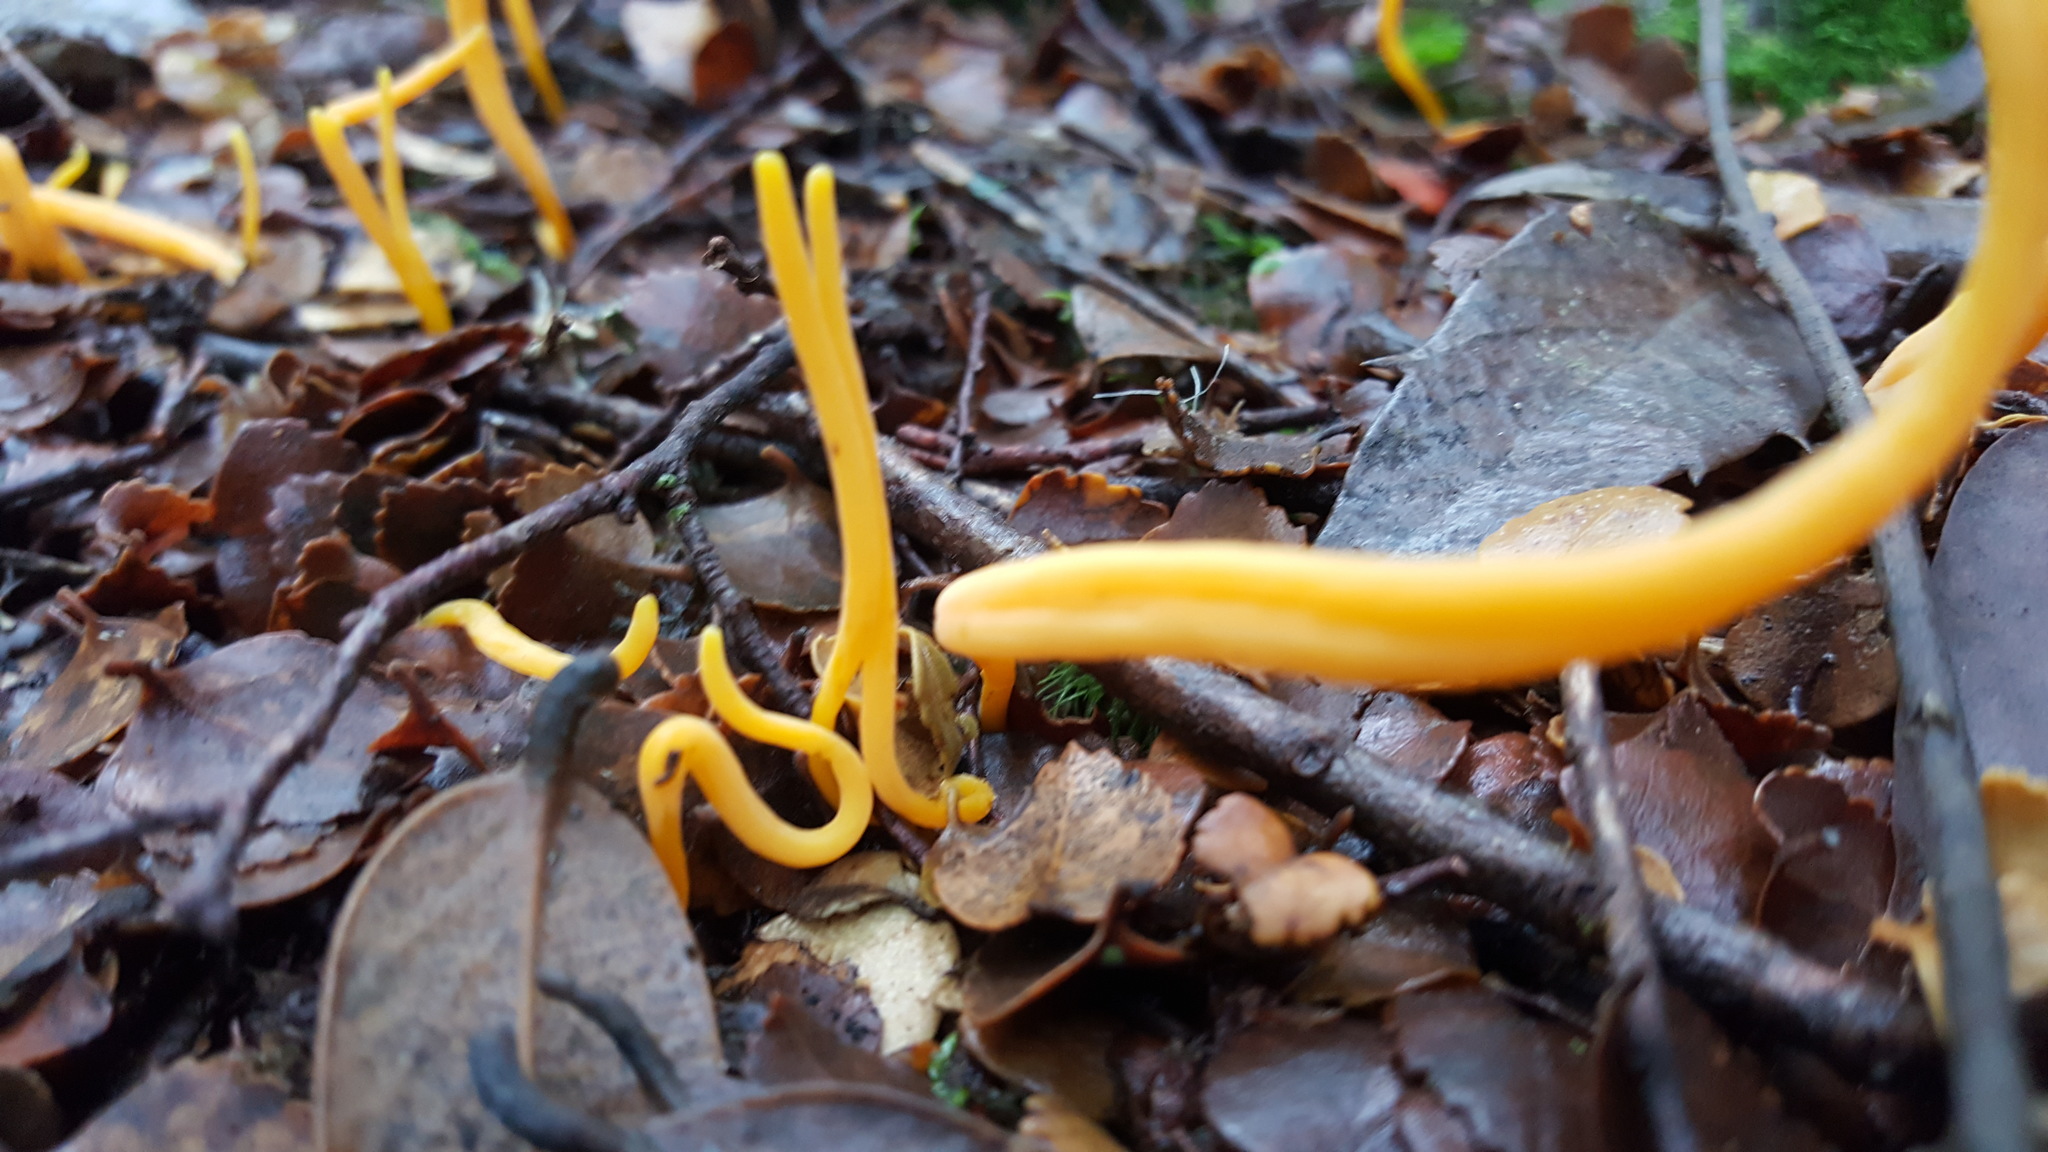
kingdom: Fungi
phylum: Basidiomycota
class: Agaricomycetes
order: Agaricales
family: Clavariaceae
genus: Clavulinopsis
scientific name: Clavulinopsis amoena
